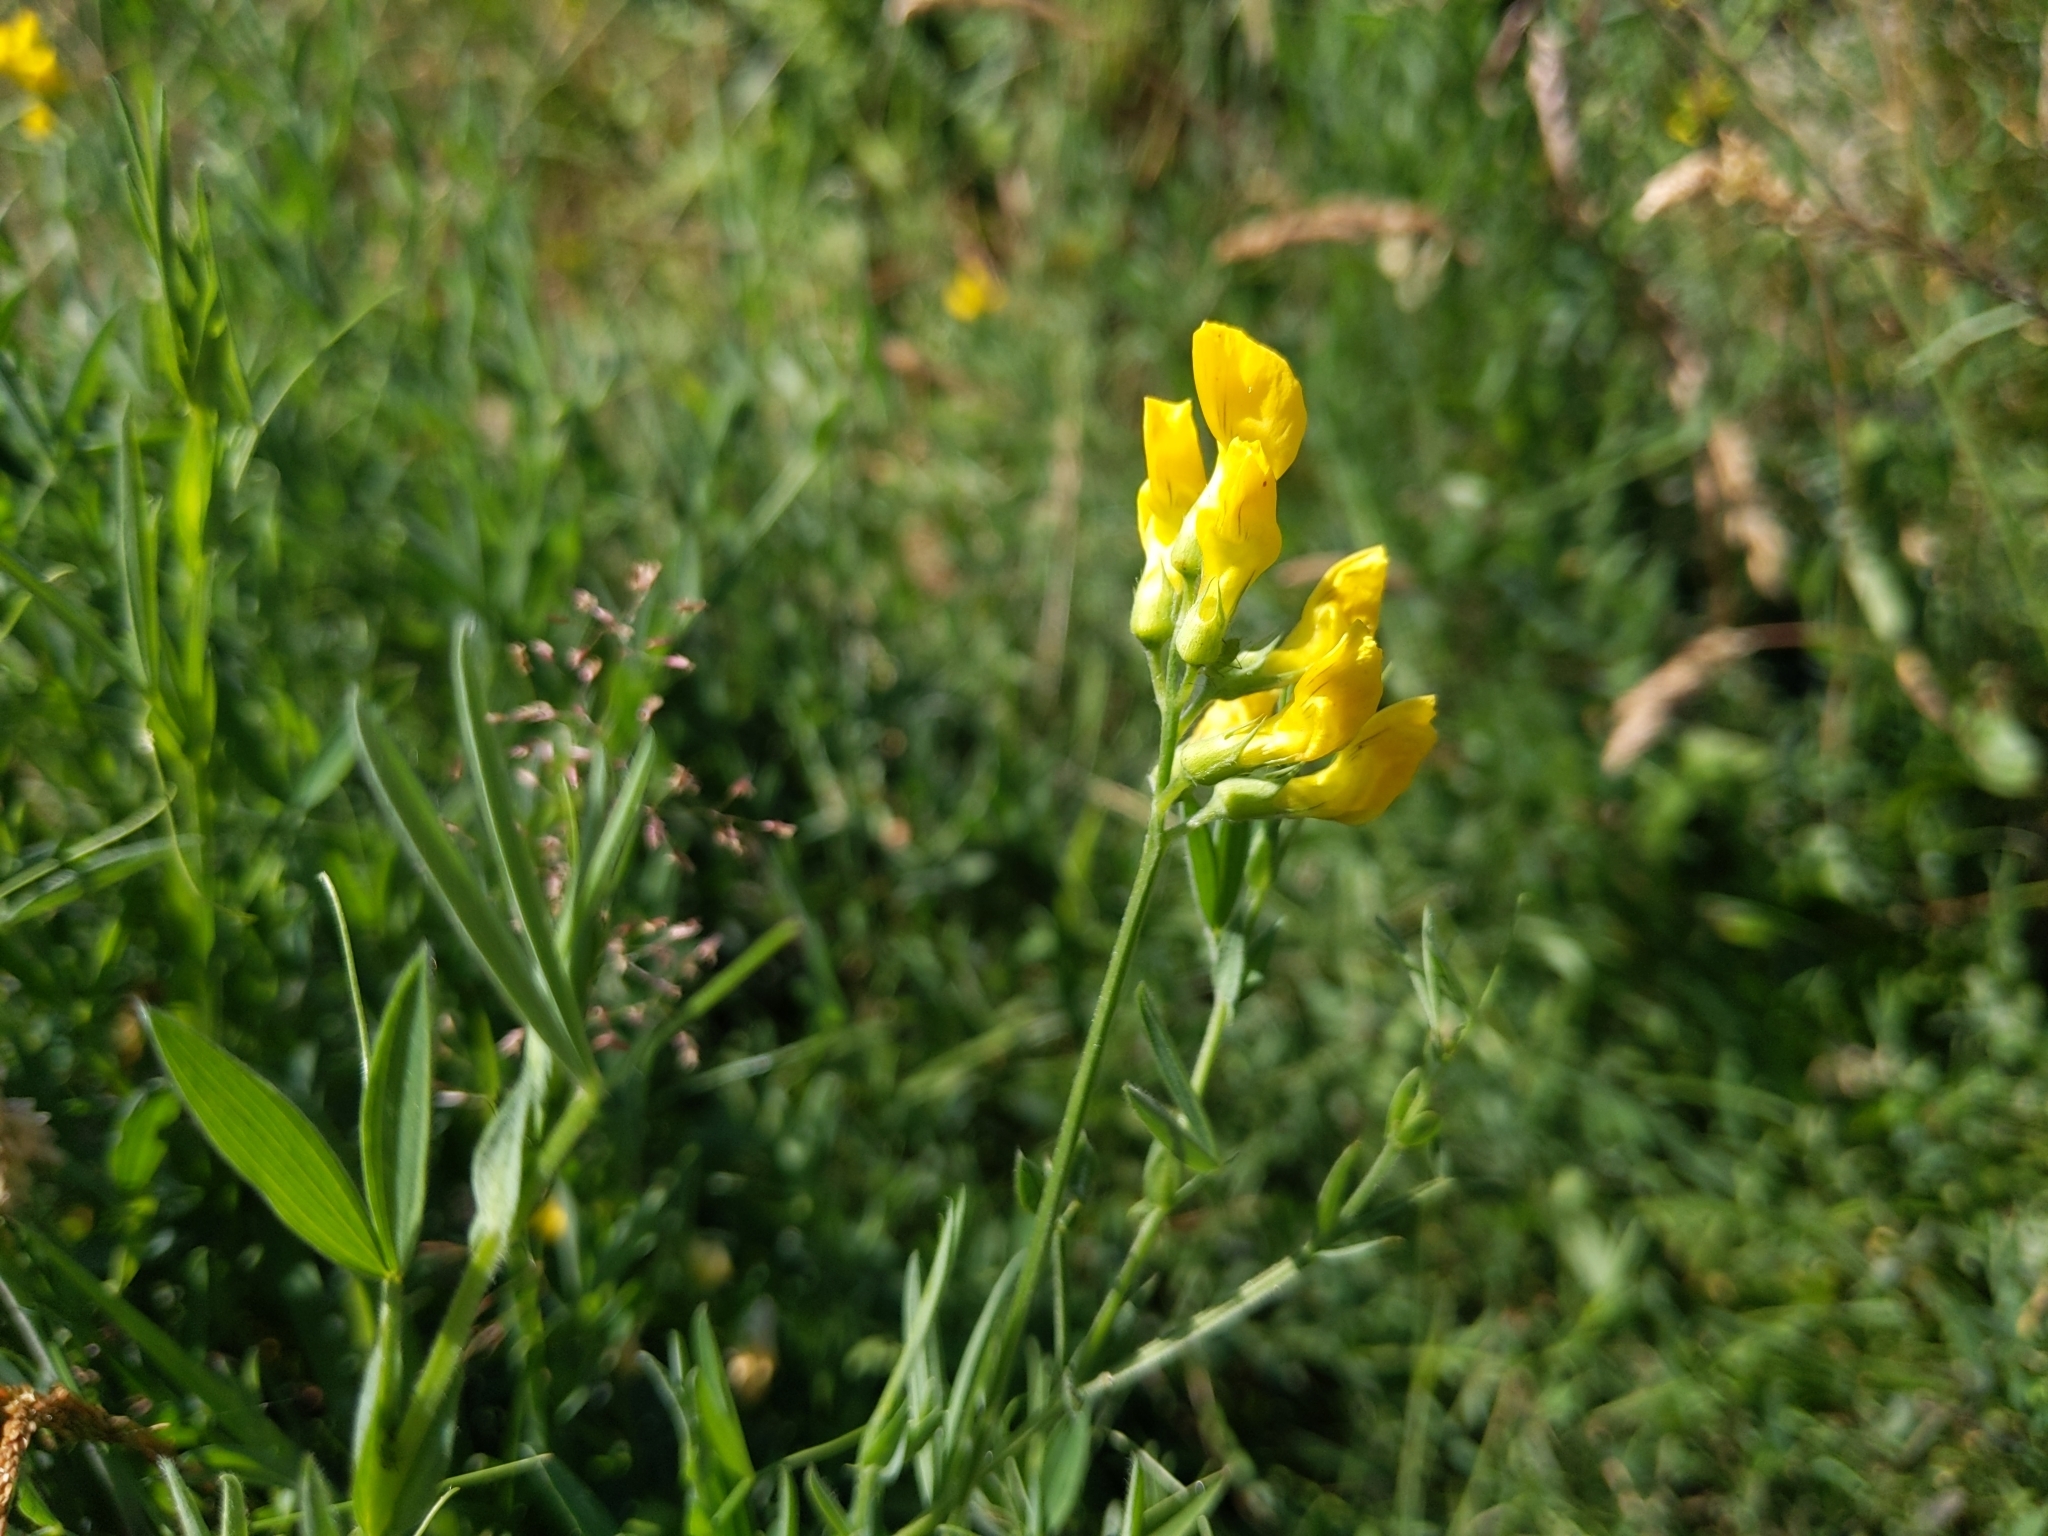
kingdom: Plantae
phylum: Tracheophyta
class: Magnoliopsida
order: Fabales
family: Fabaceae
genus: Lathyrus
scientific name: Lathyrus pratensis
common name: Meadow vetchling
